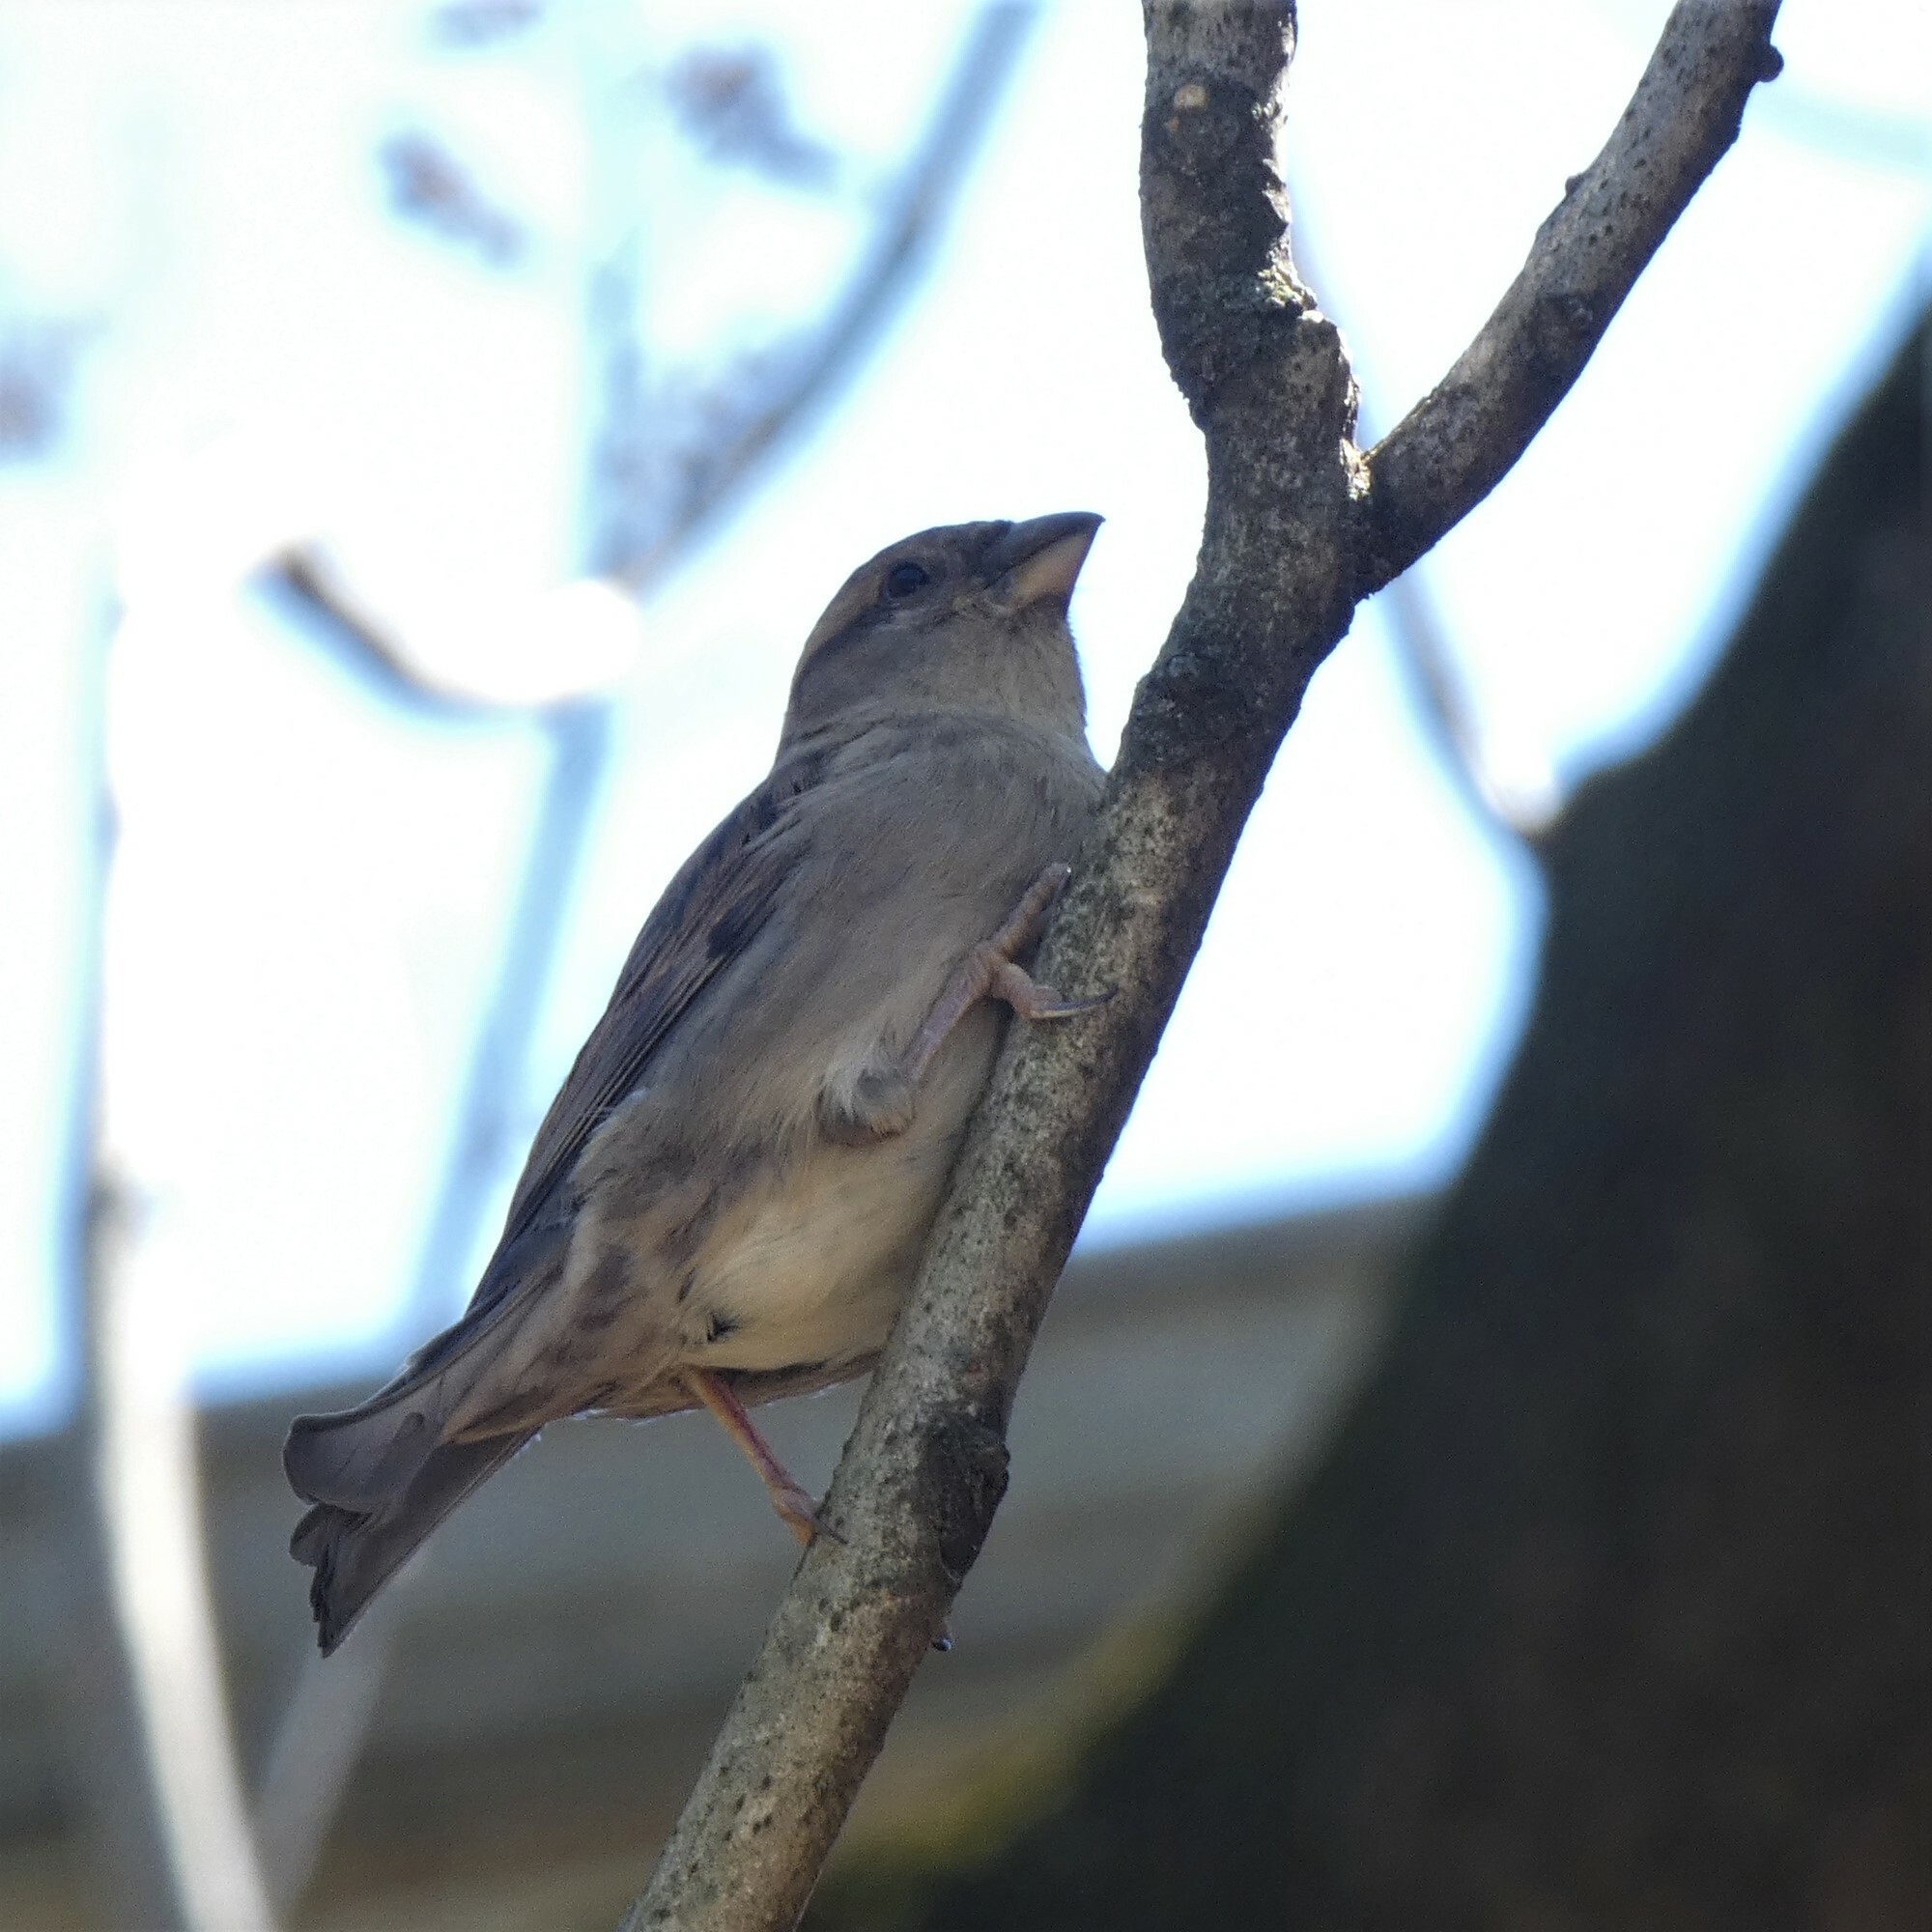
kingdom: Animalia
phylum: Chordata
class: Aves
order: Passeriformes
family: Passeridae
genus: Passer
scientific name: Passer domesticus
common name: House sparrow
